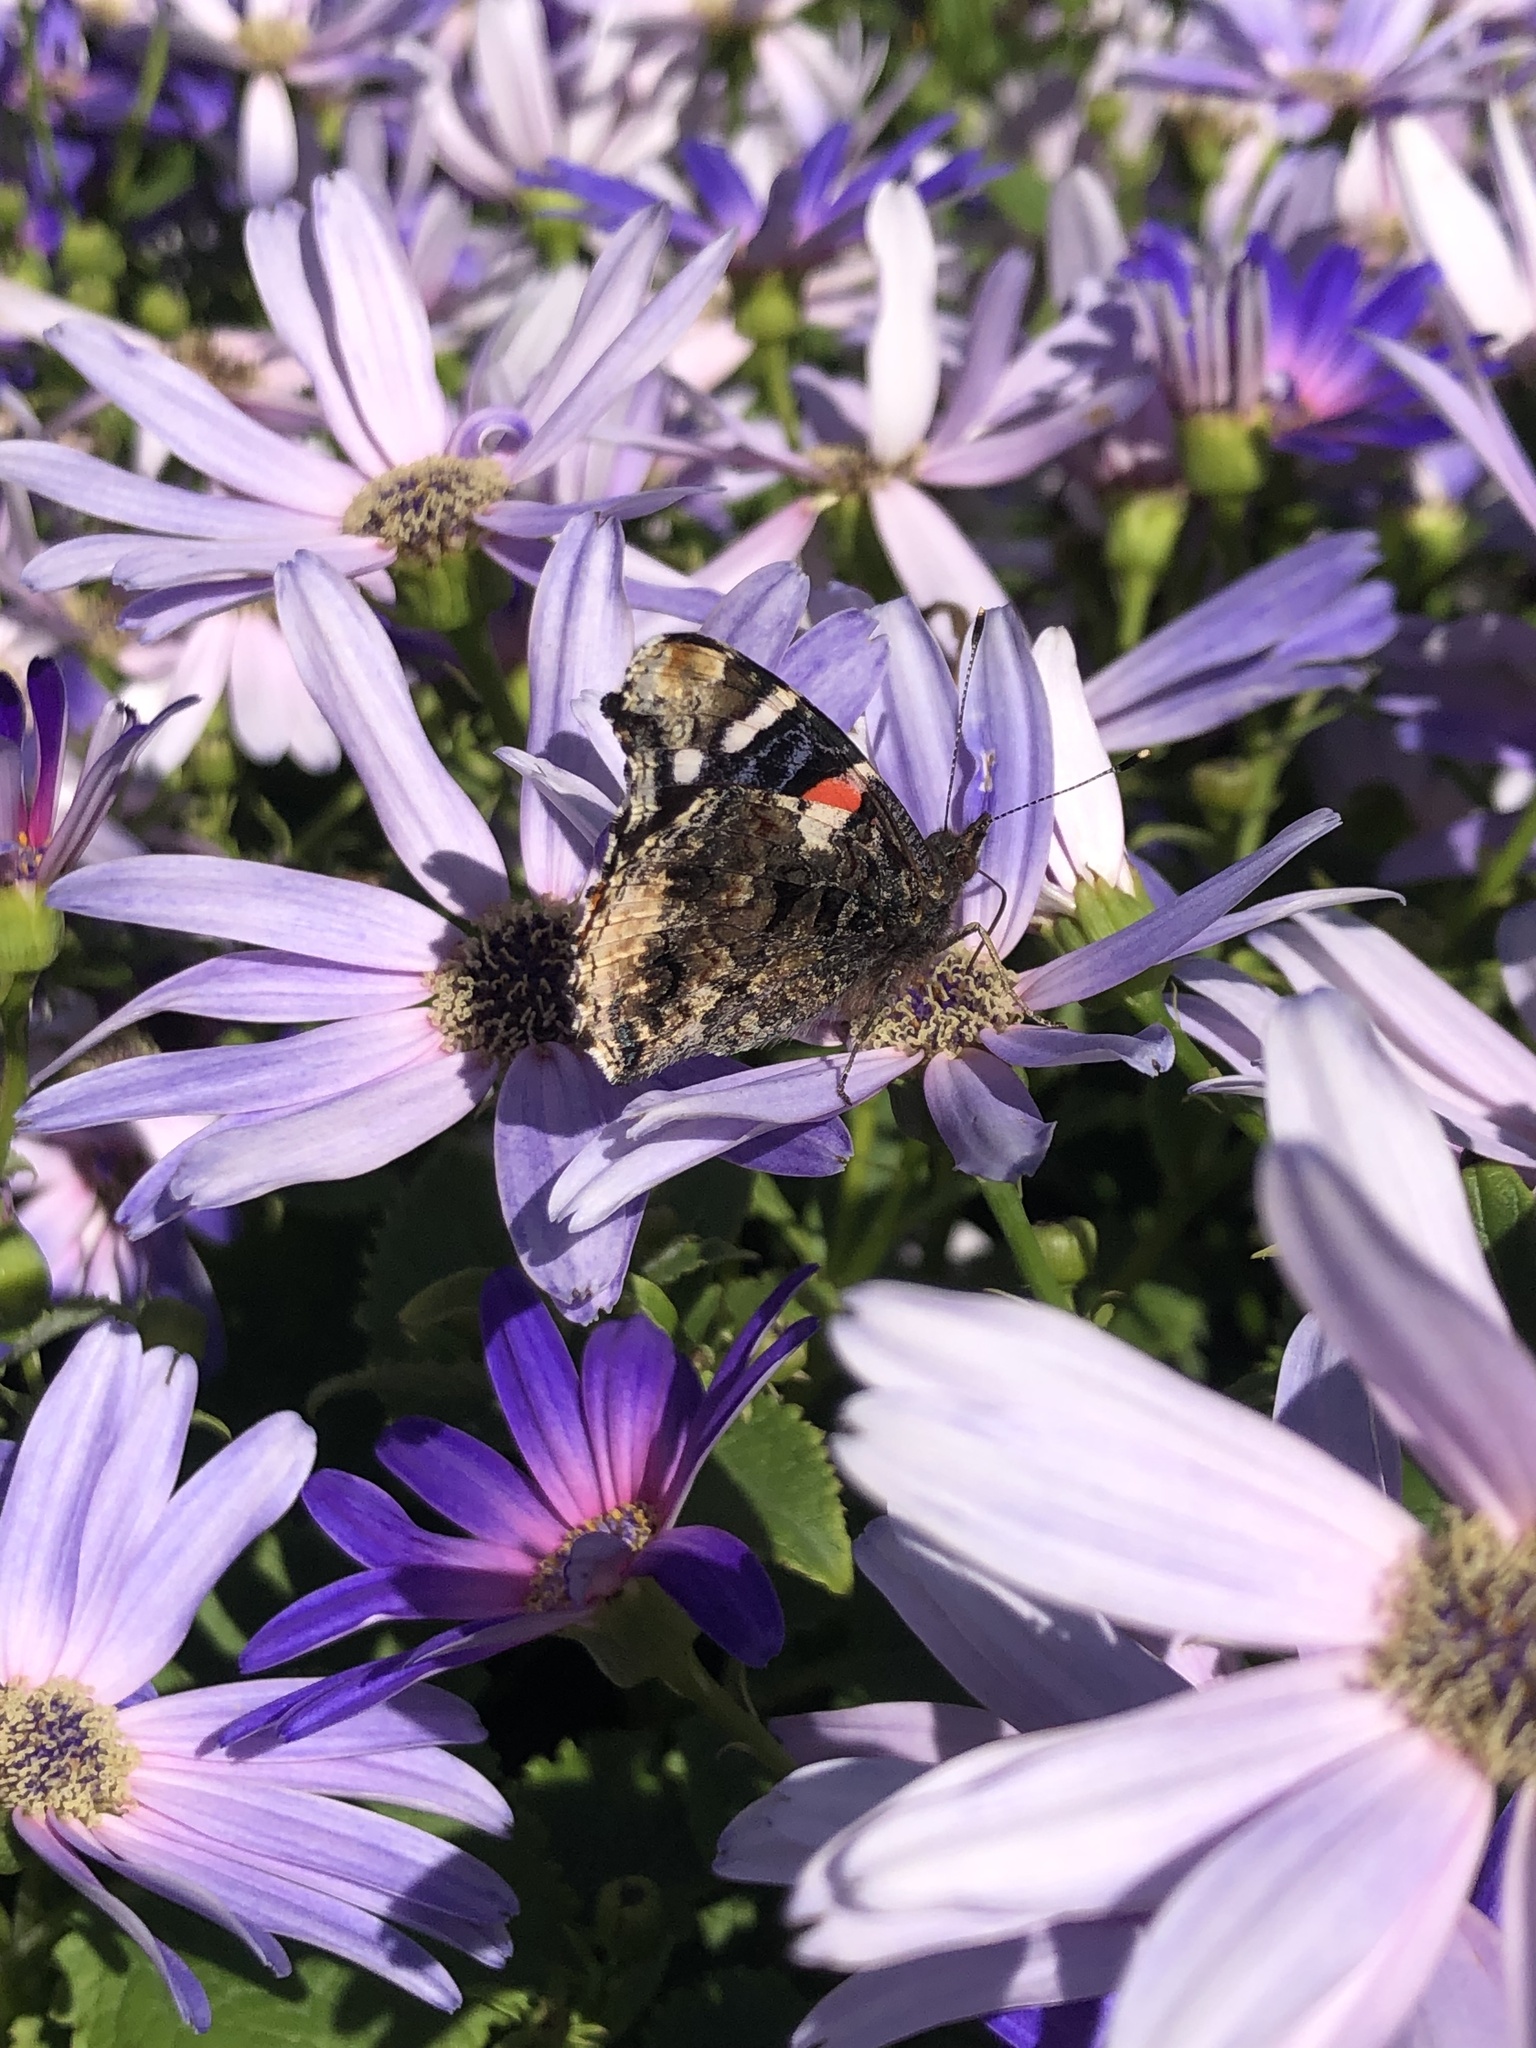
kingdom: Animalia
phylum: Arthropoda
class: Insecta
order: Lepidoptera
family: Nymphalidae
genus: Vanessa
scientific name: Vanessa atalanta
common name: Red admiral
